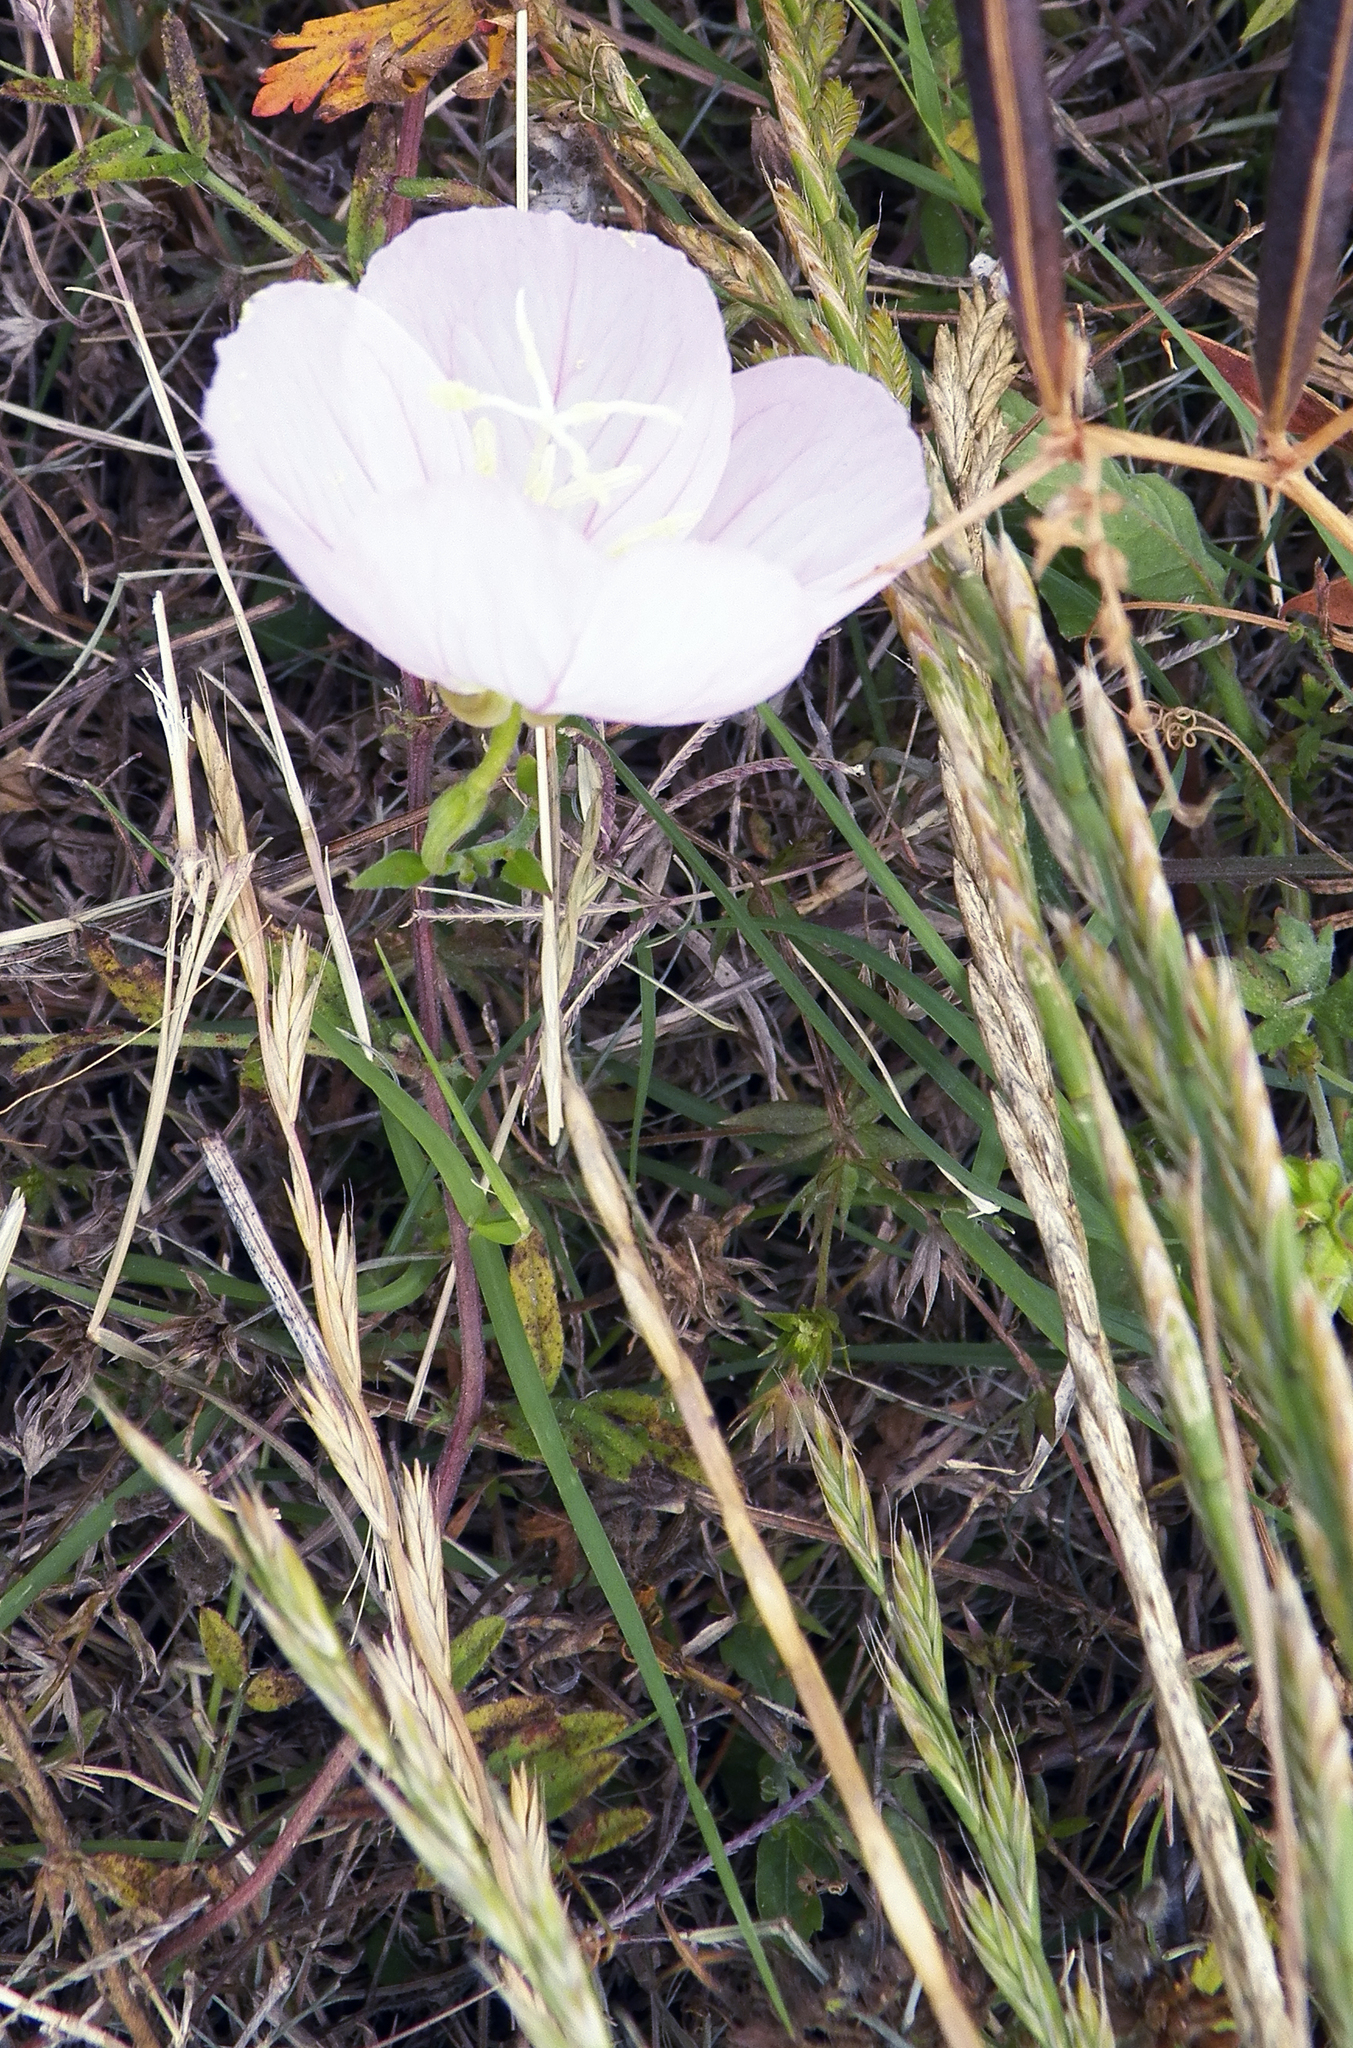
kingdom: Plantae
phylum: Tracheophyta
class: Magnoliopsida
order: Myrtales
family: Onagraceae
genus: Oenothera
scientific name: Oenothera speciosa
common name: White evening-primrose
